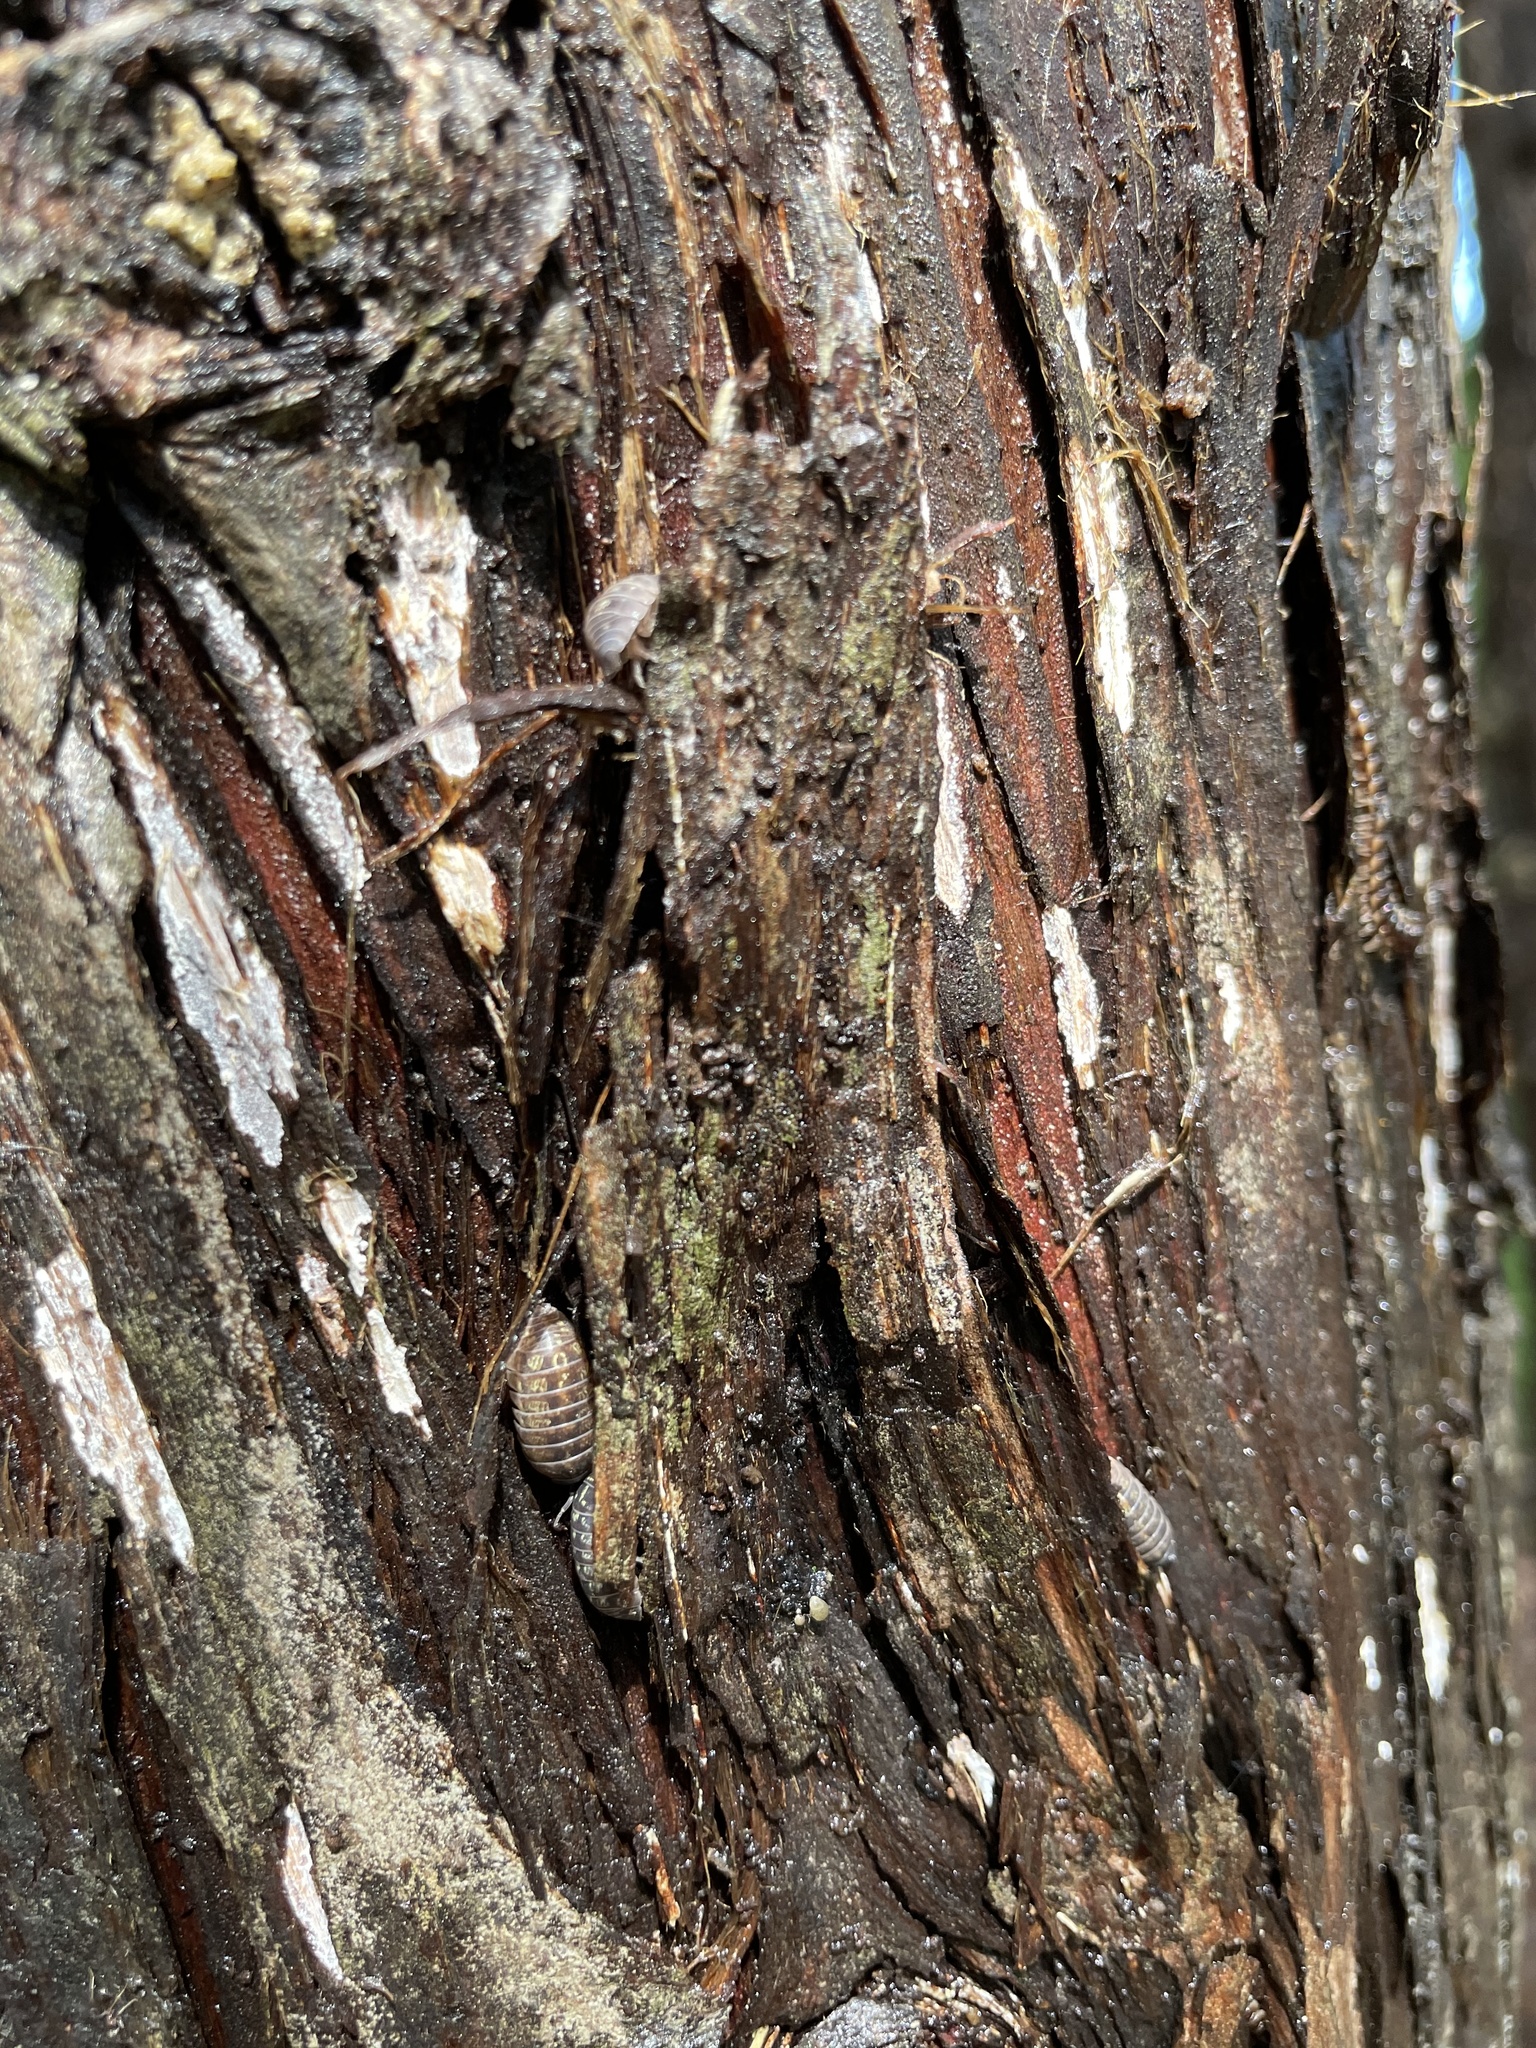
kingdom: Animalia
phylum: Arthropoda
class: Malacostraca
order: Isopoda
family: Armadillidiidae
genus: Armadillidium
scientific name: Armadillidium vulgare
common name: Common pill woodlouse
